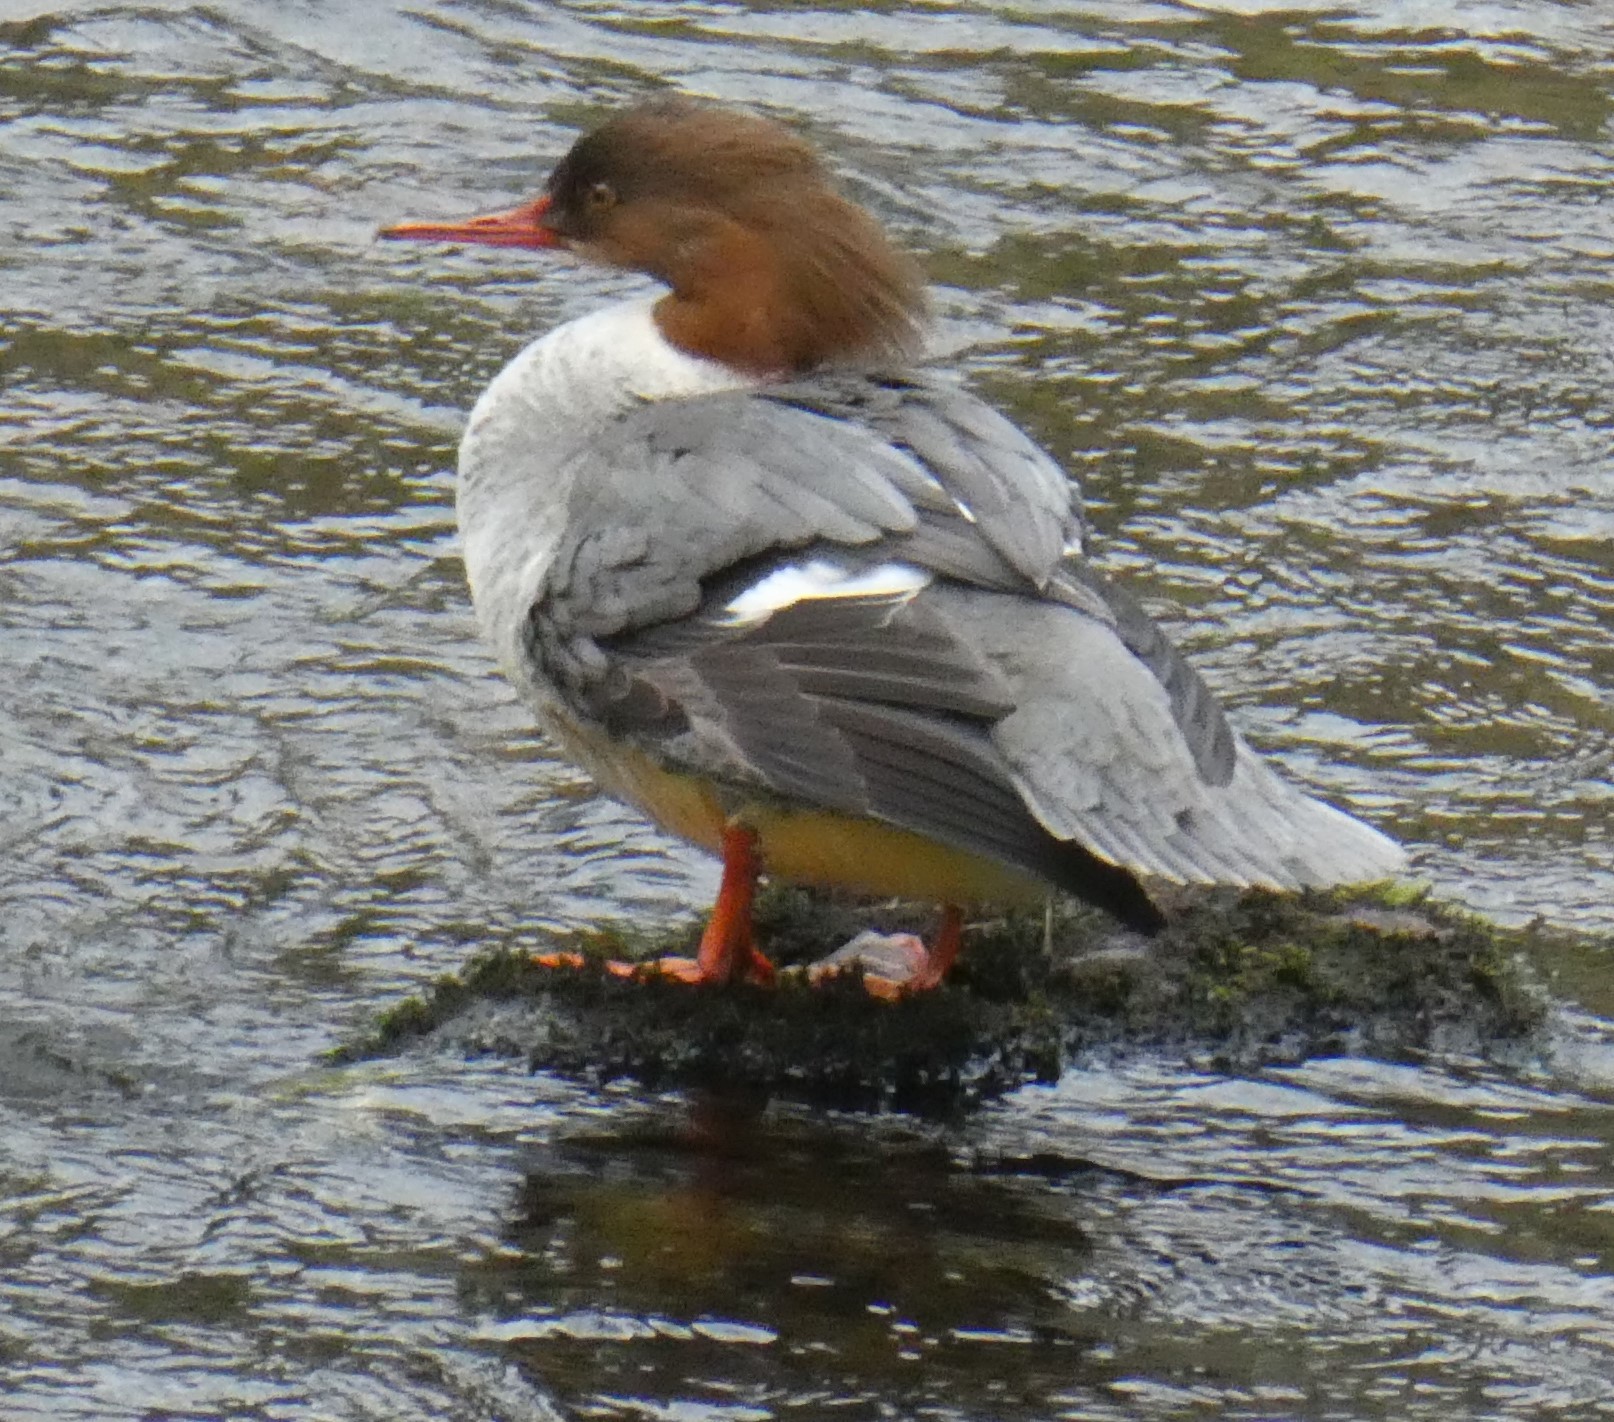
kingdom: Animalia
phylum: Chordata
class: Aves
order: Anseriformes
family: Anatidae
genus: Mergus
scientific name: Mergus merganser
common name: Common merganser
